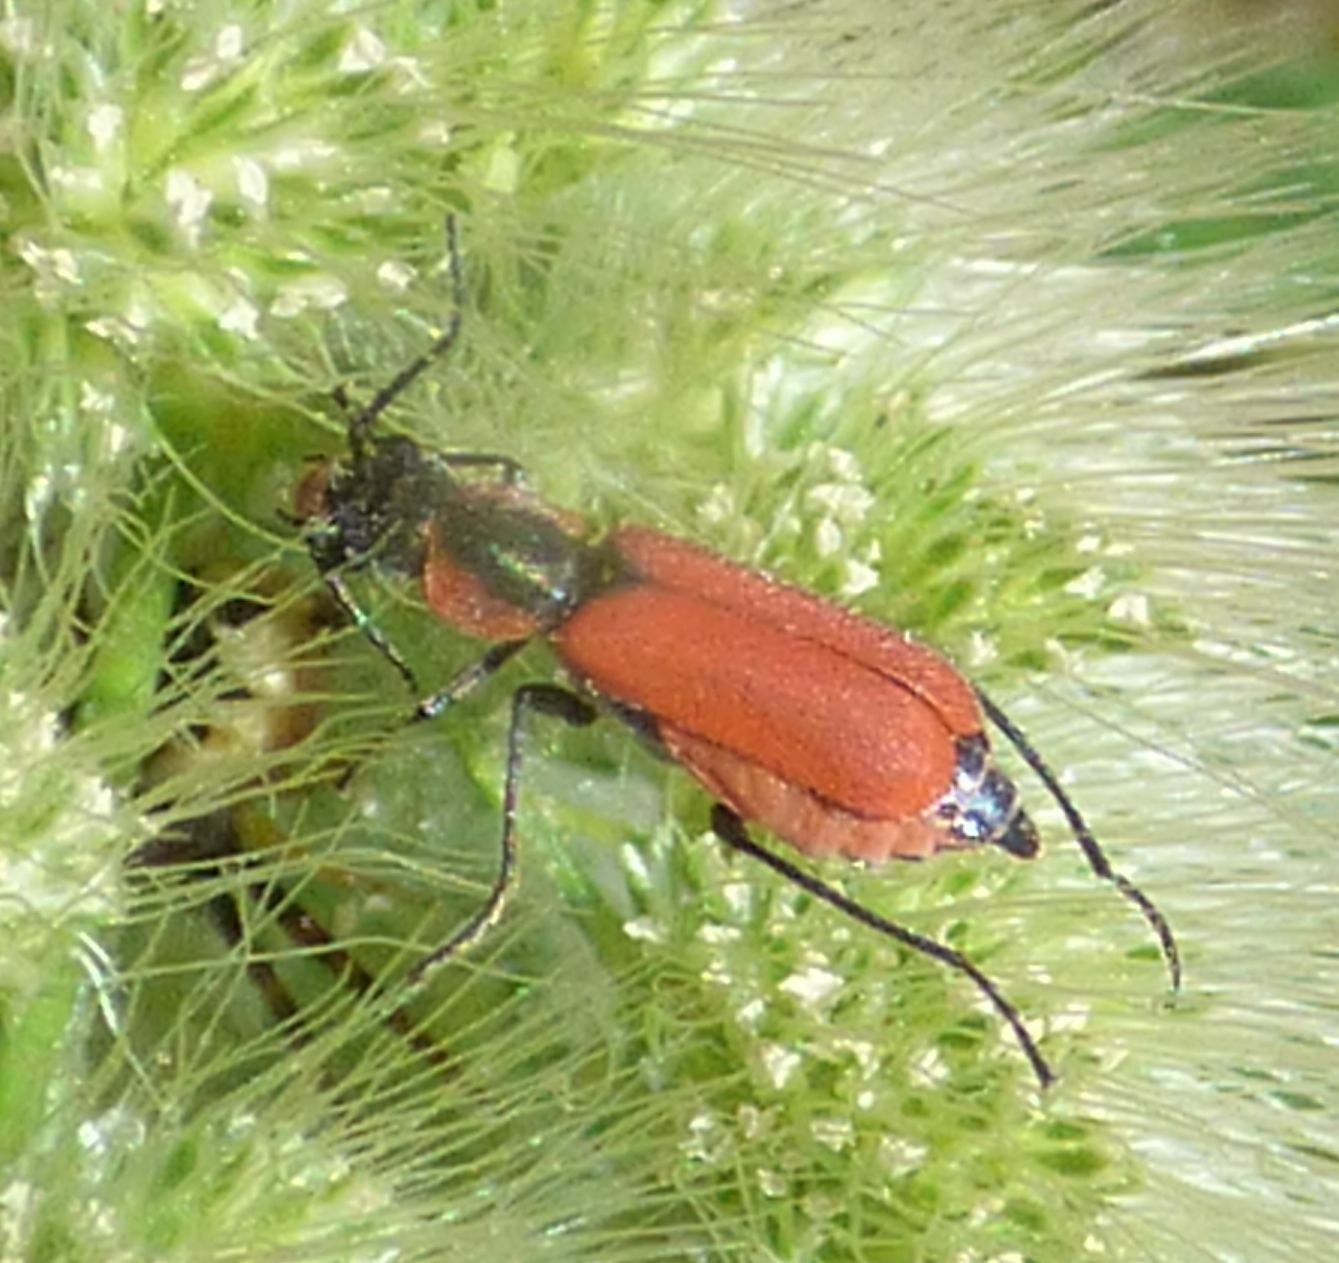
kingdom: Animalia
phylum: Arthropoda
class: Insecta
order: Coleoptera
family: Melyridae
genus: Malachius
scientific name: Malachius coccineus
